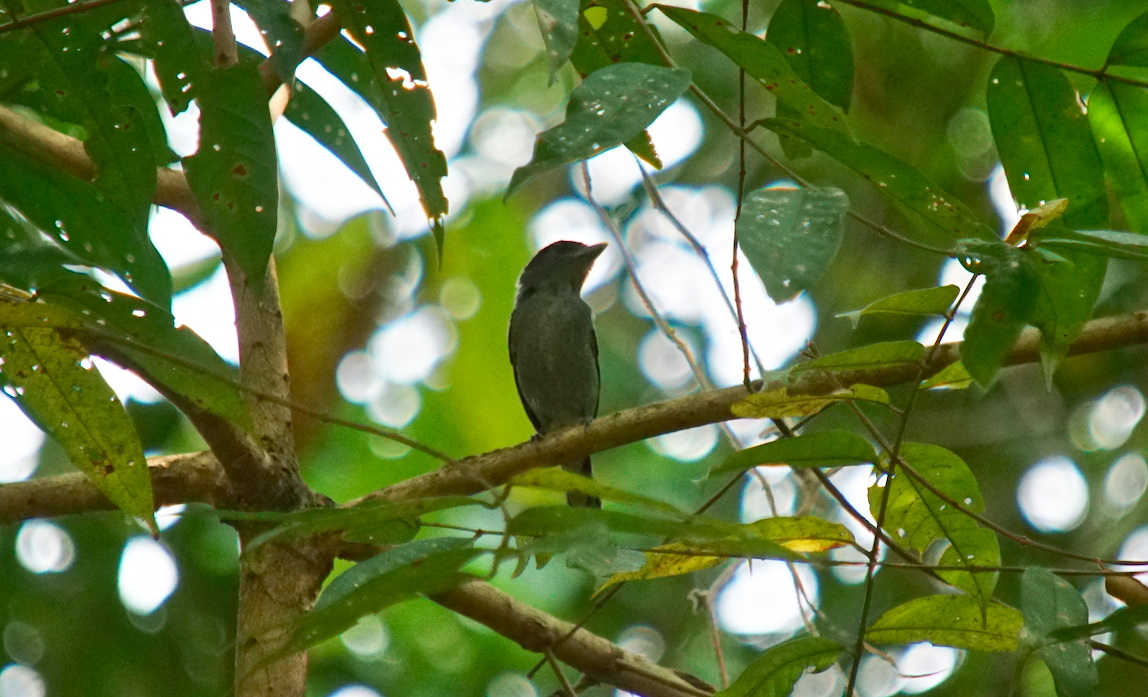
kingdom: Animalia
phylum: Chordata
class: Aves
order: Passeriformes
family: Cotingidae
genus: Pachyramphus
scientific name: Pachyramphus polychopterus
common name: White-winged becard
